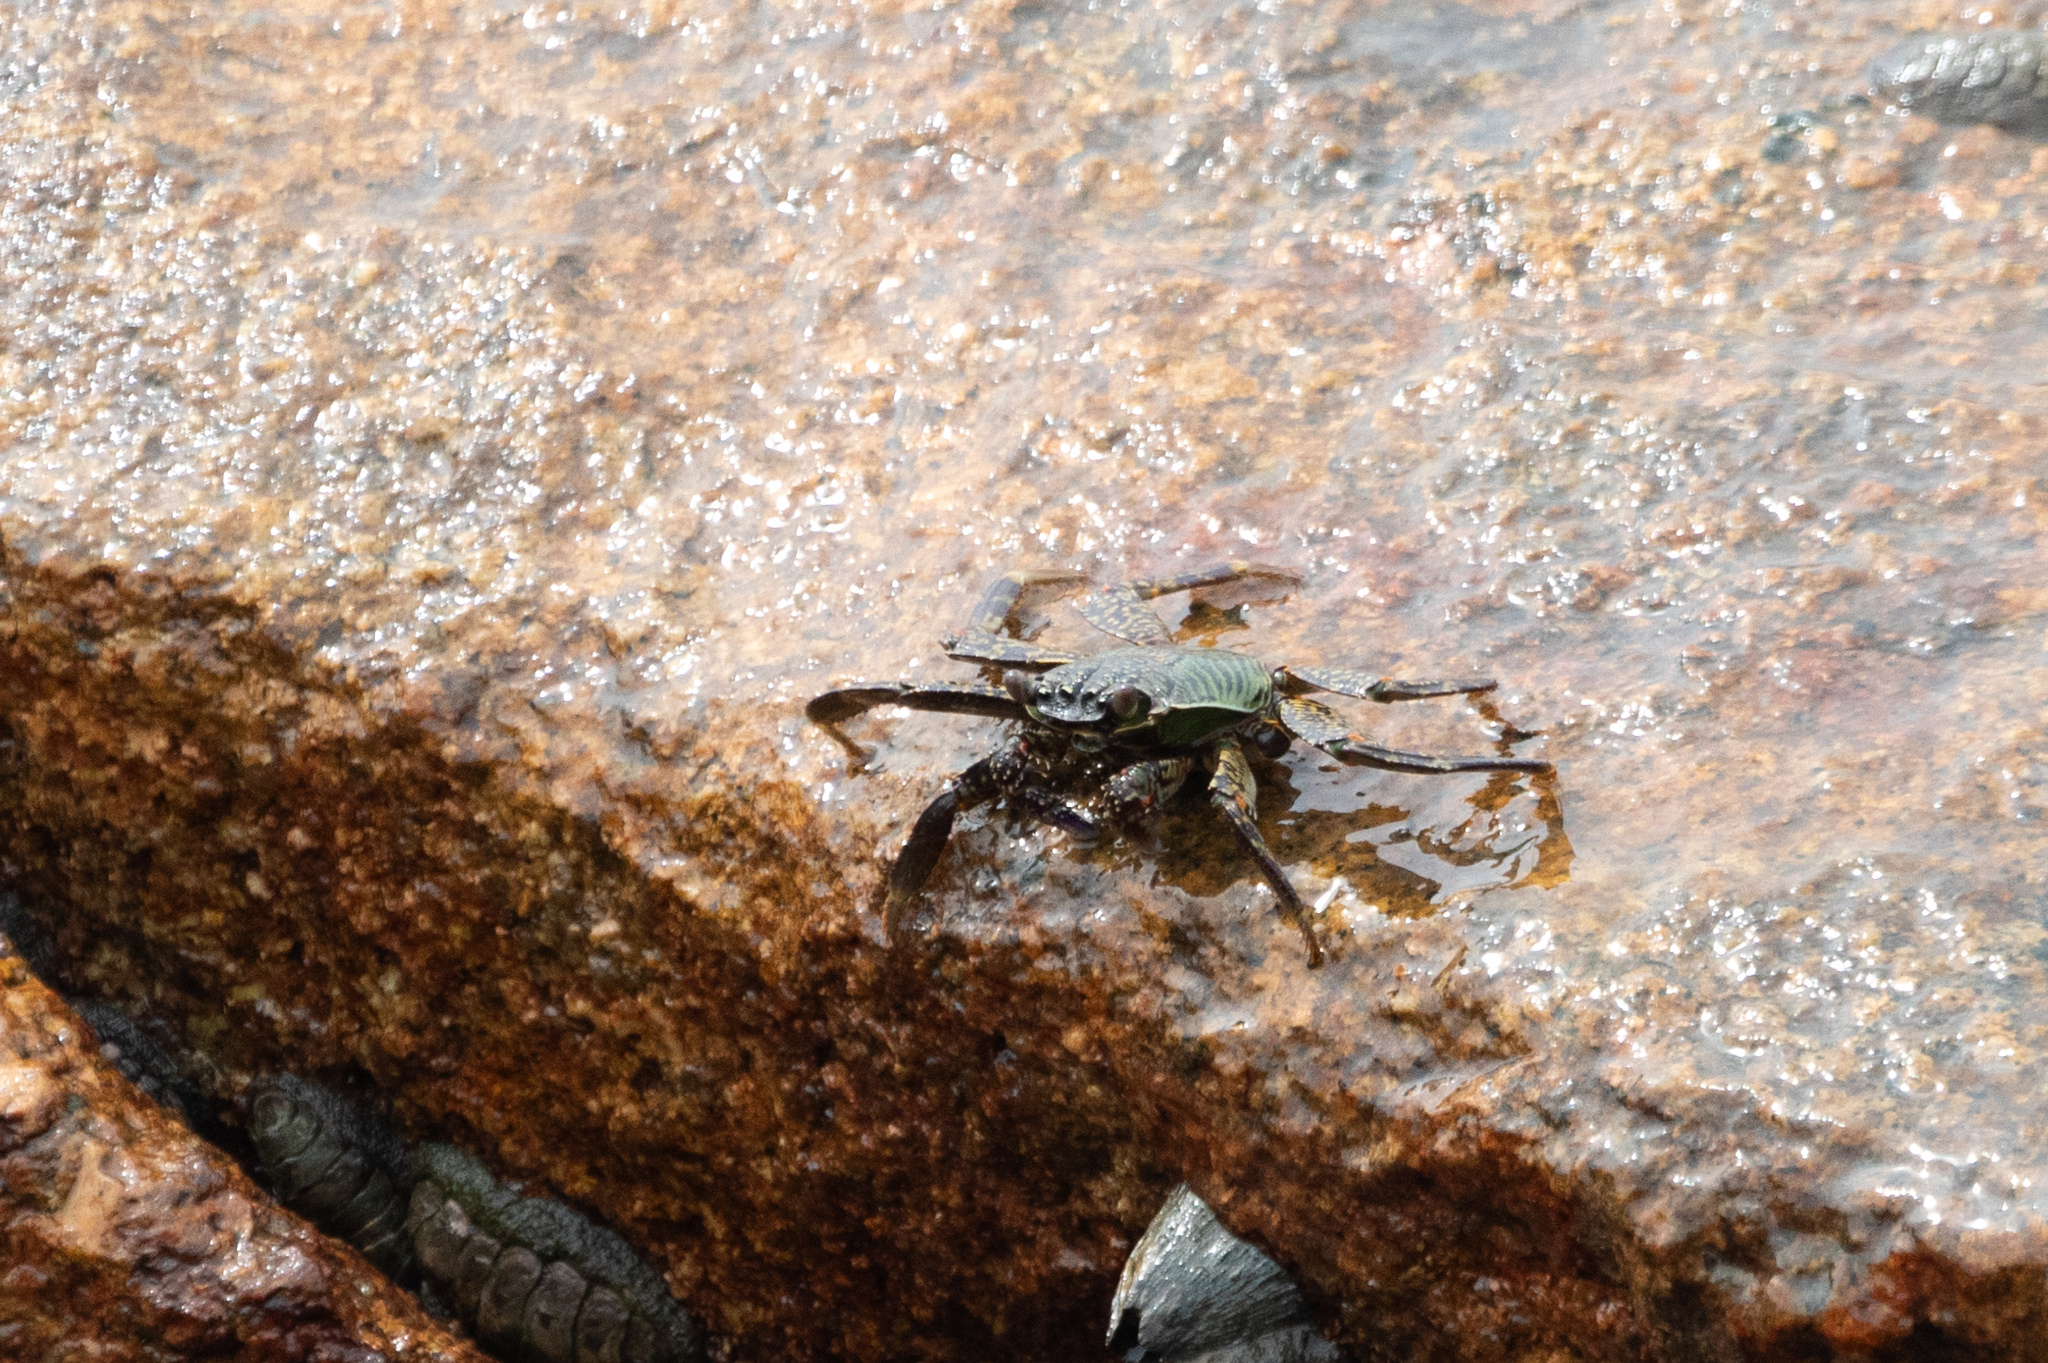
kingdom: Animalia
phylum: Arthropoda
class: Malacostraca
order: Decapoda
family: Grapsidae
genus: Grapsus
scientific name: Grapsus albolineatus
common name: Mottled lightfoot crab
